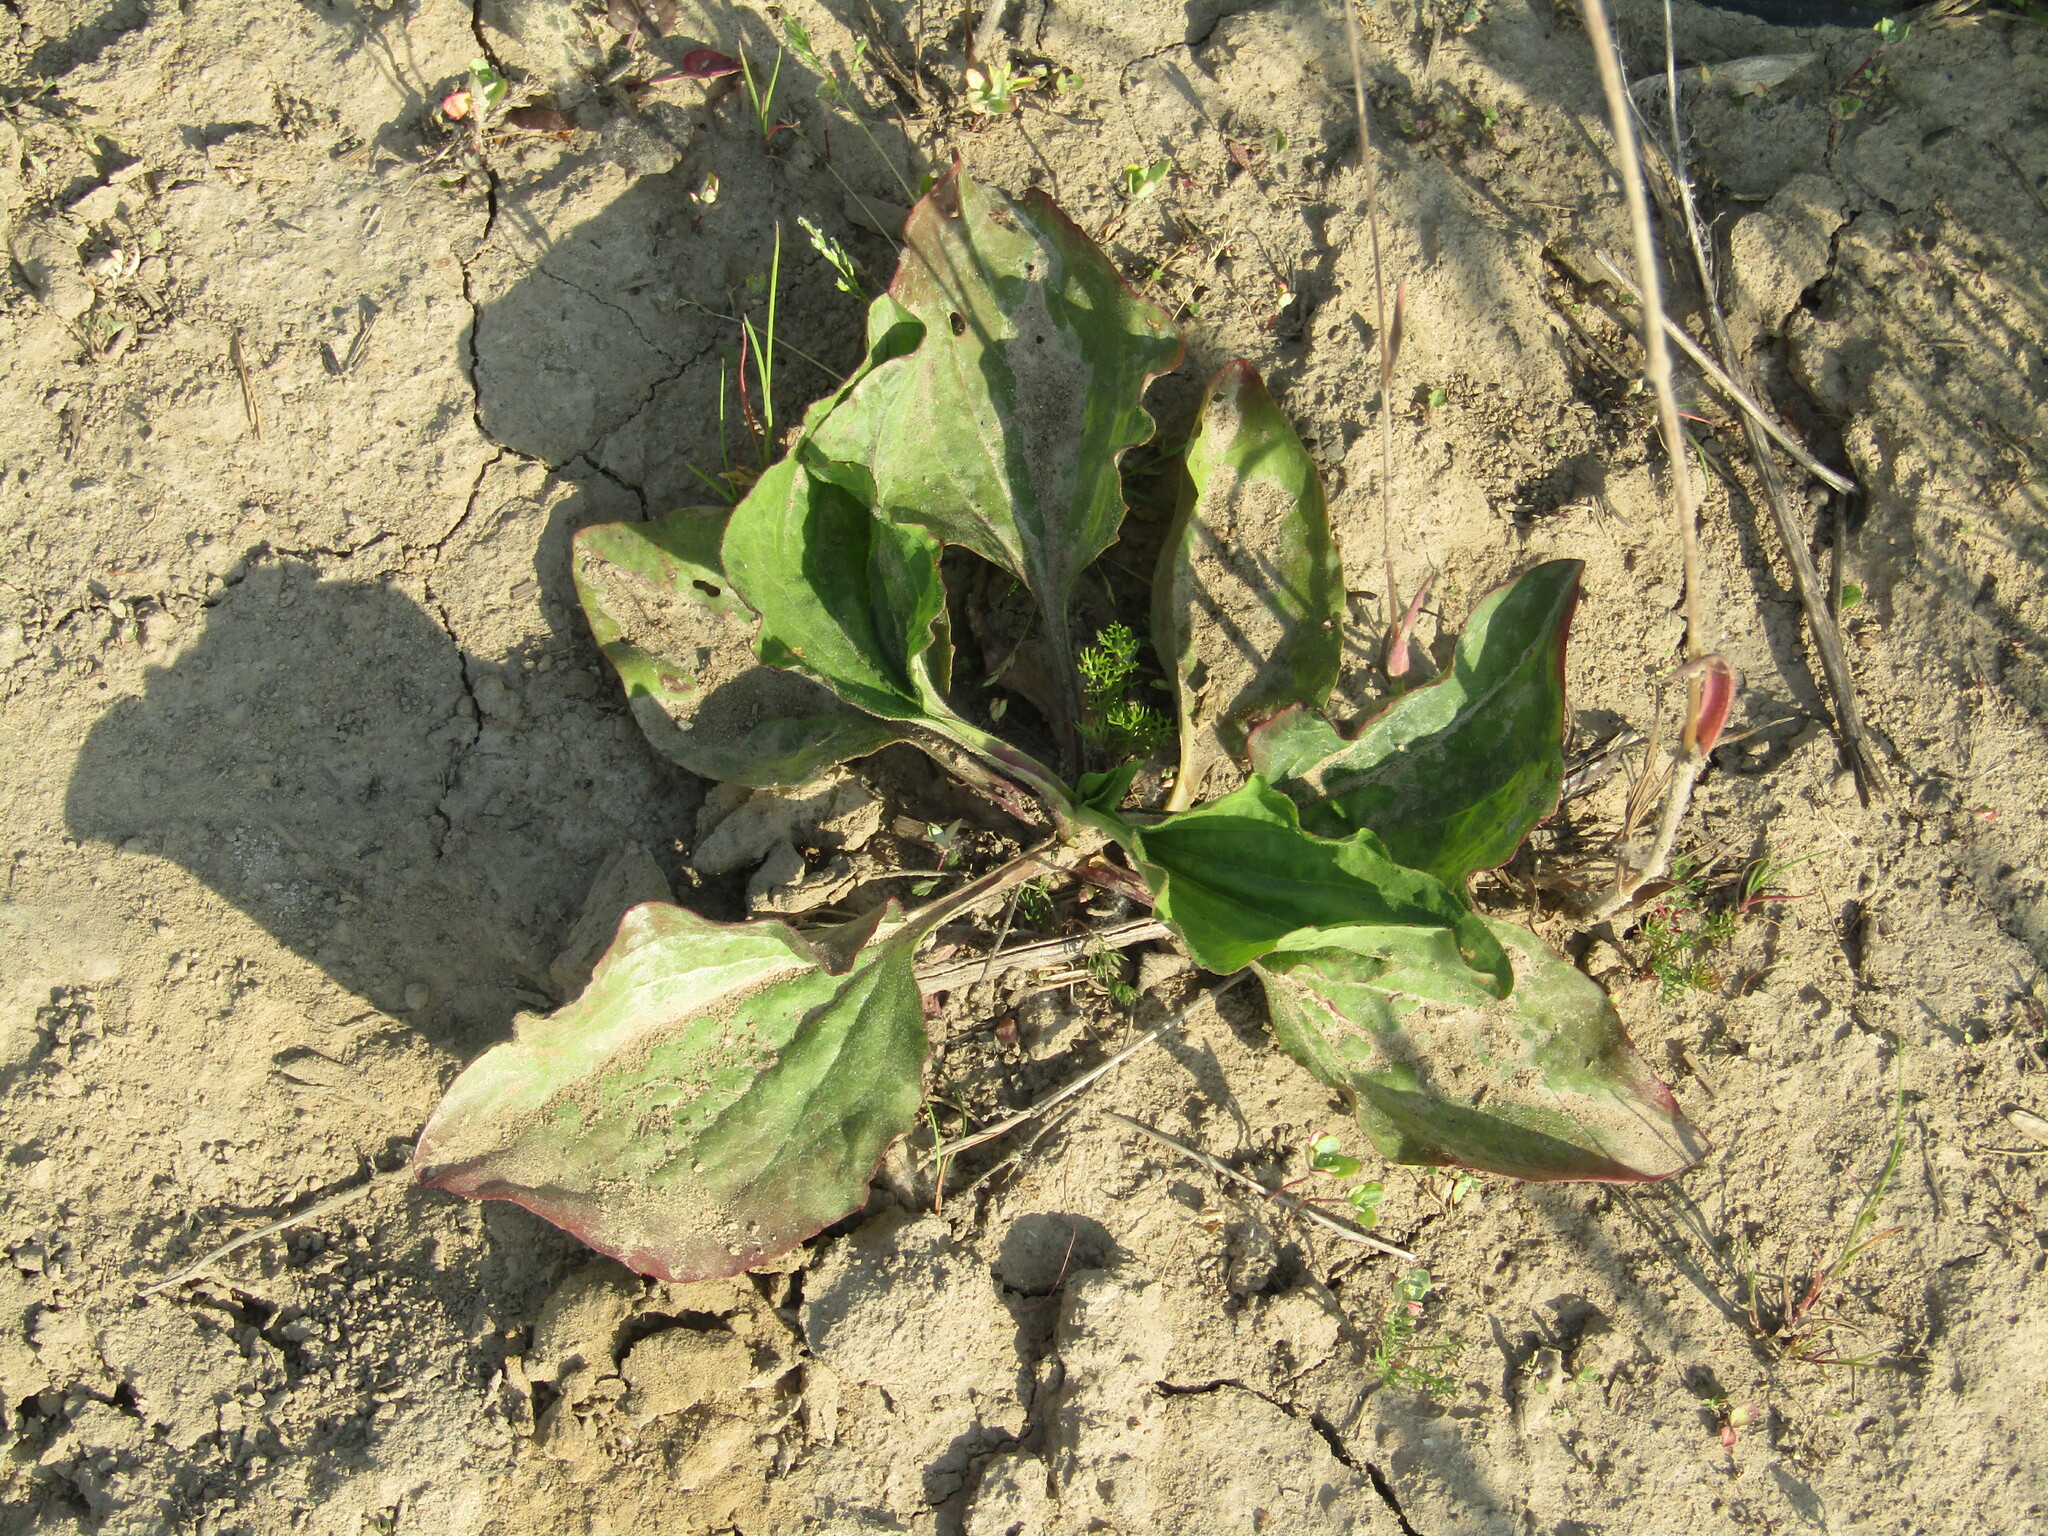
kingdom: Plantae
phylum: Tracheophyta
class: Magnoliopsida
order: Lamiales
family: Plantaginaceae
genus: Plantago
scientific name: Plantago major
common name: Common plantain
